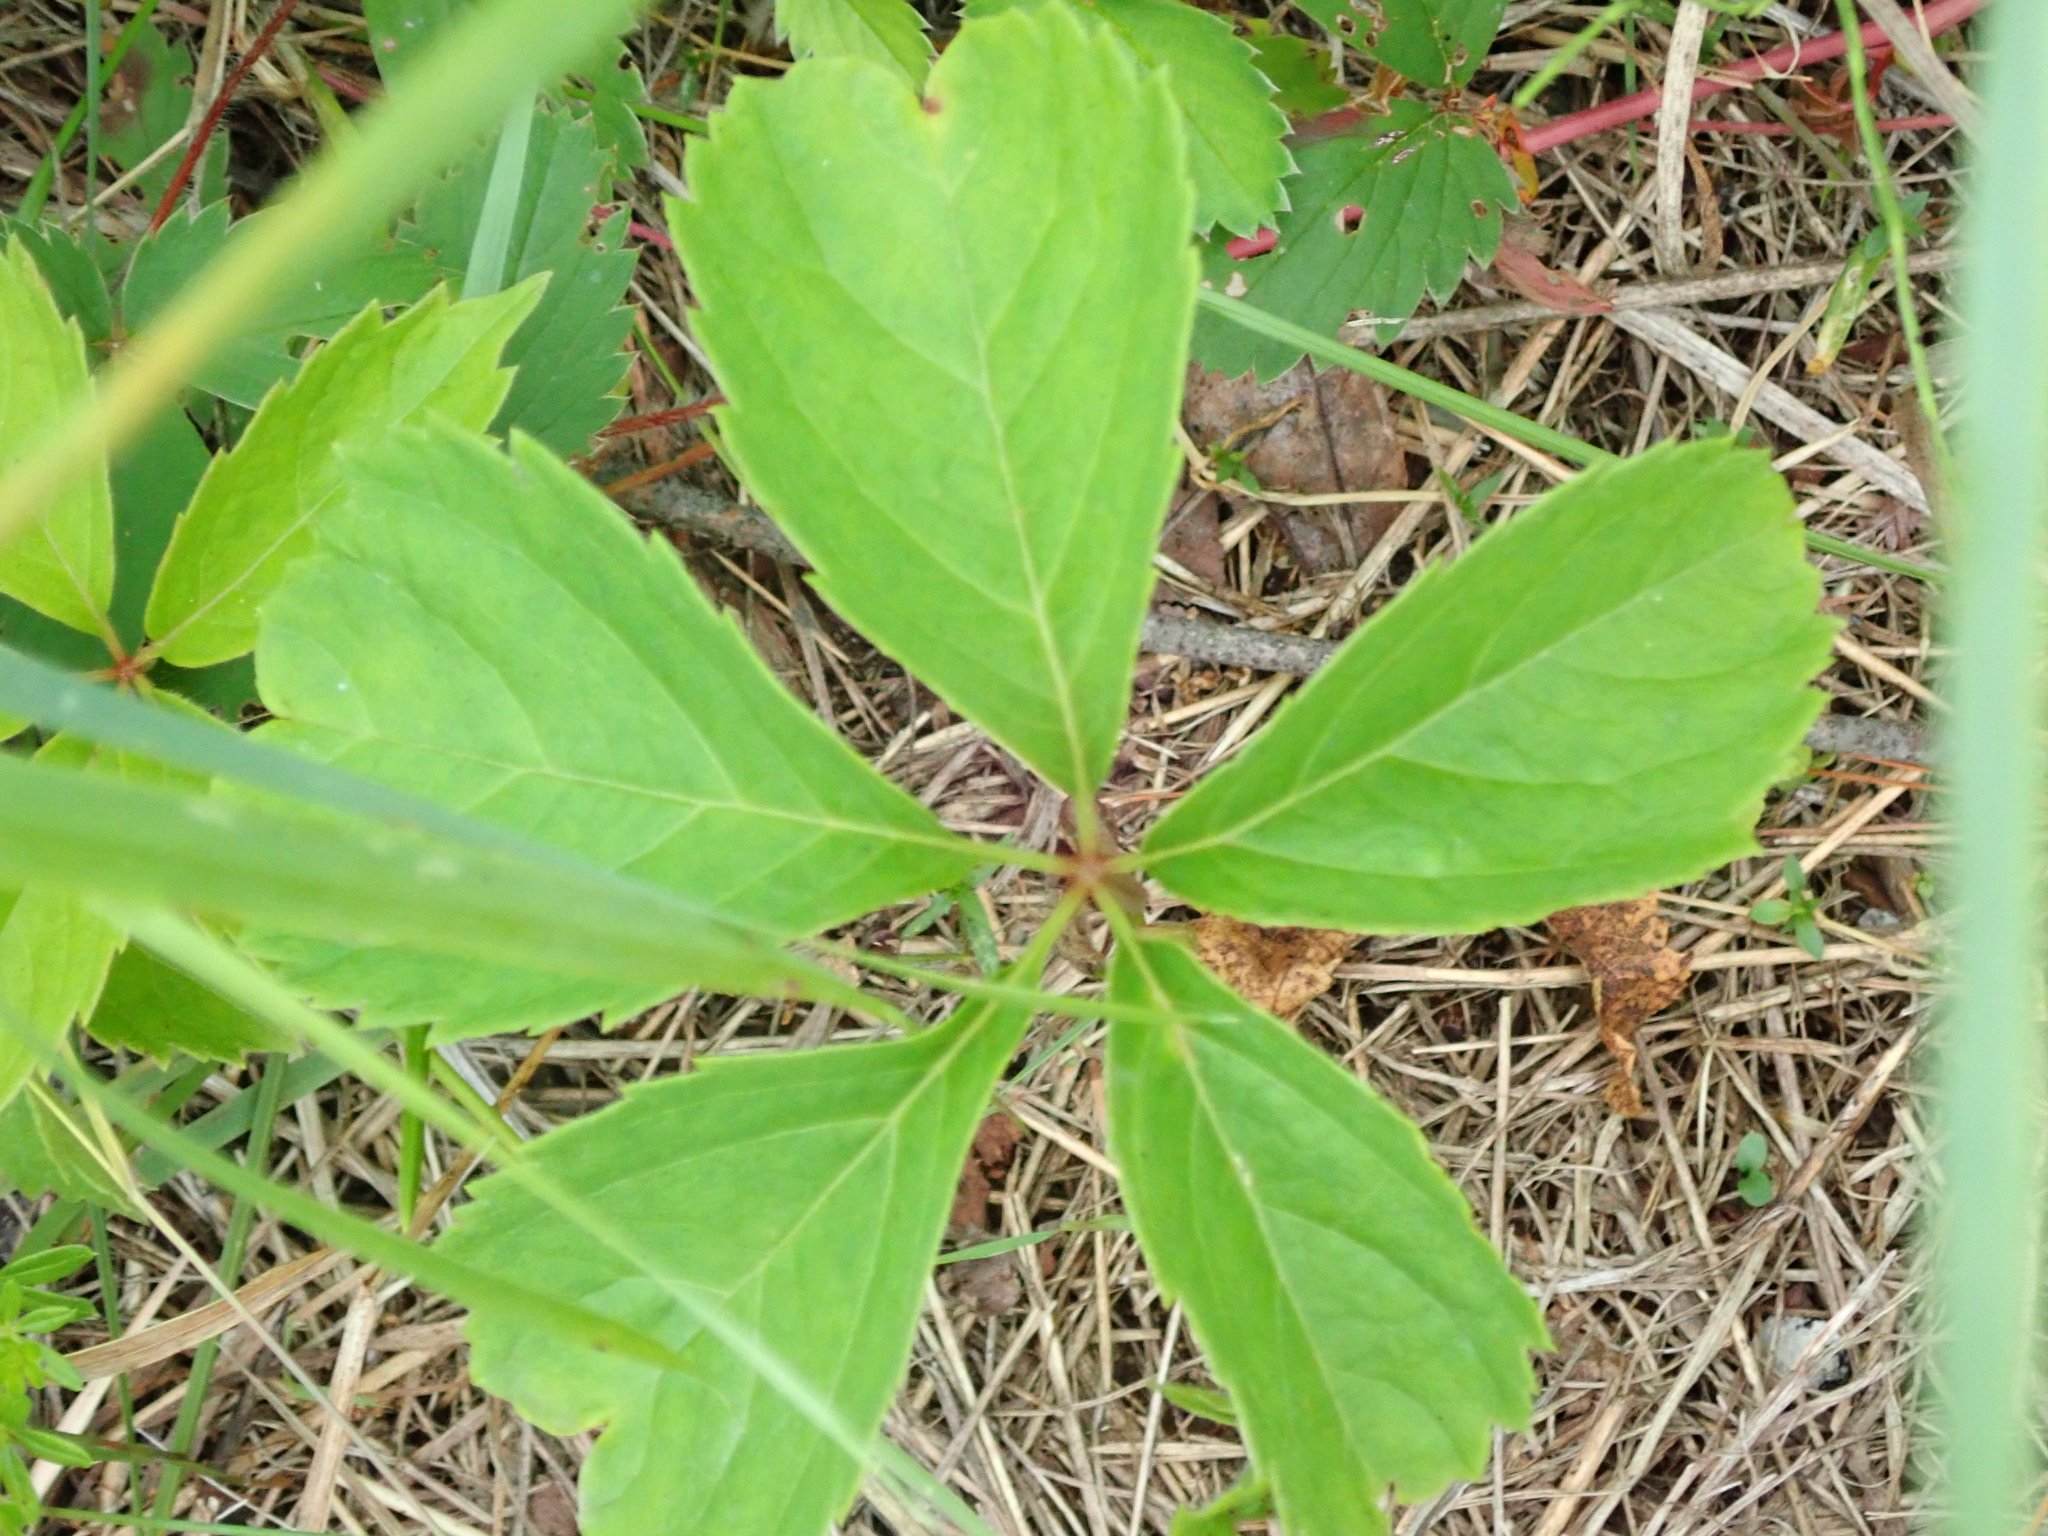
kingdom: Plantae
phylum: Tracheophyta
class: Magnoliopsida
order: Vitales
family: Vitaceae
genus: Parthenocissus
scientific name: Parthenocissus quinquefolia
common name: Virginia-creeper
